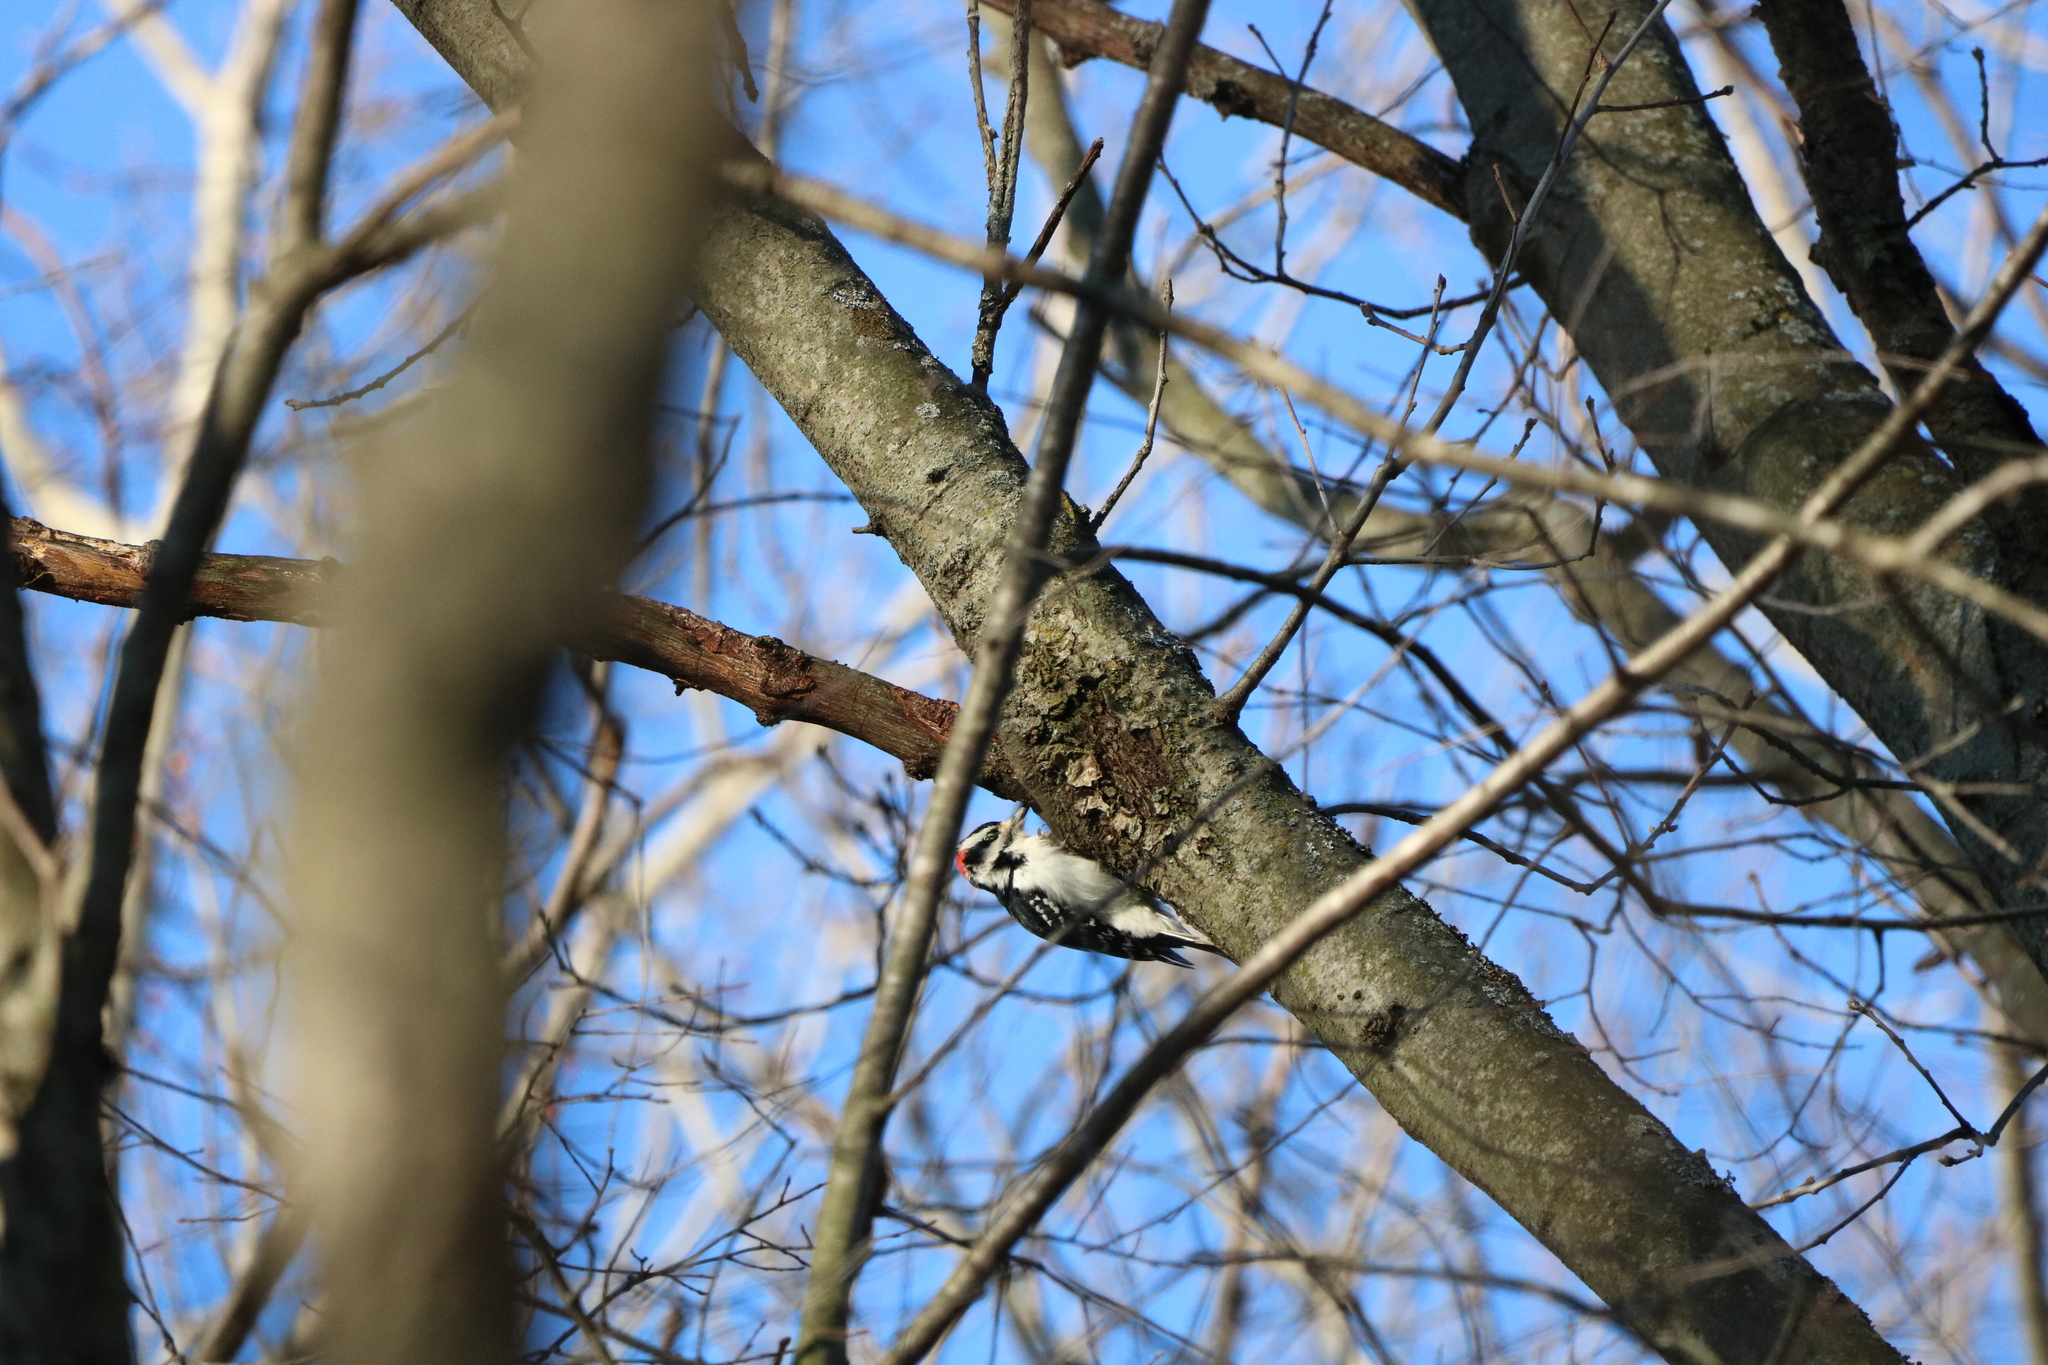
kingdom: Animalia
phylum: Chordata
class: Aves
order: Piciformes
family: Picidae
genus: Leuconotopicus
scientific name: Leuconotopicus villosus
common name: Hairy woodpecker
